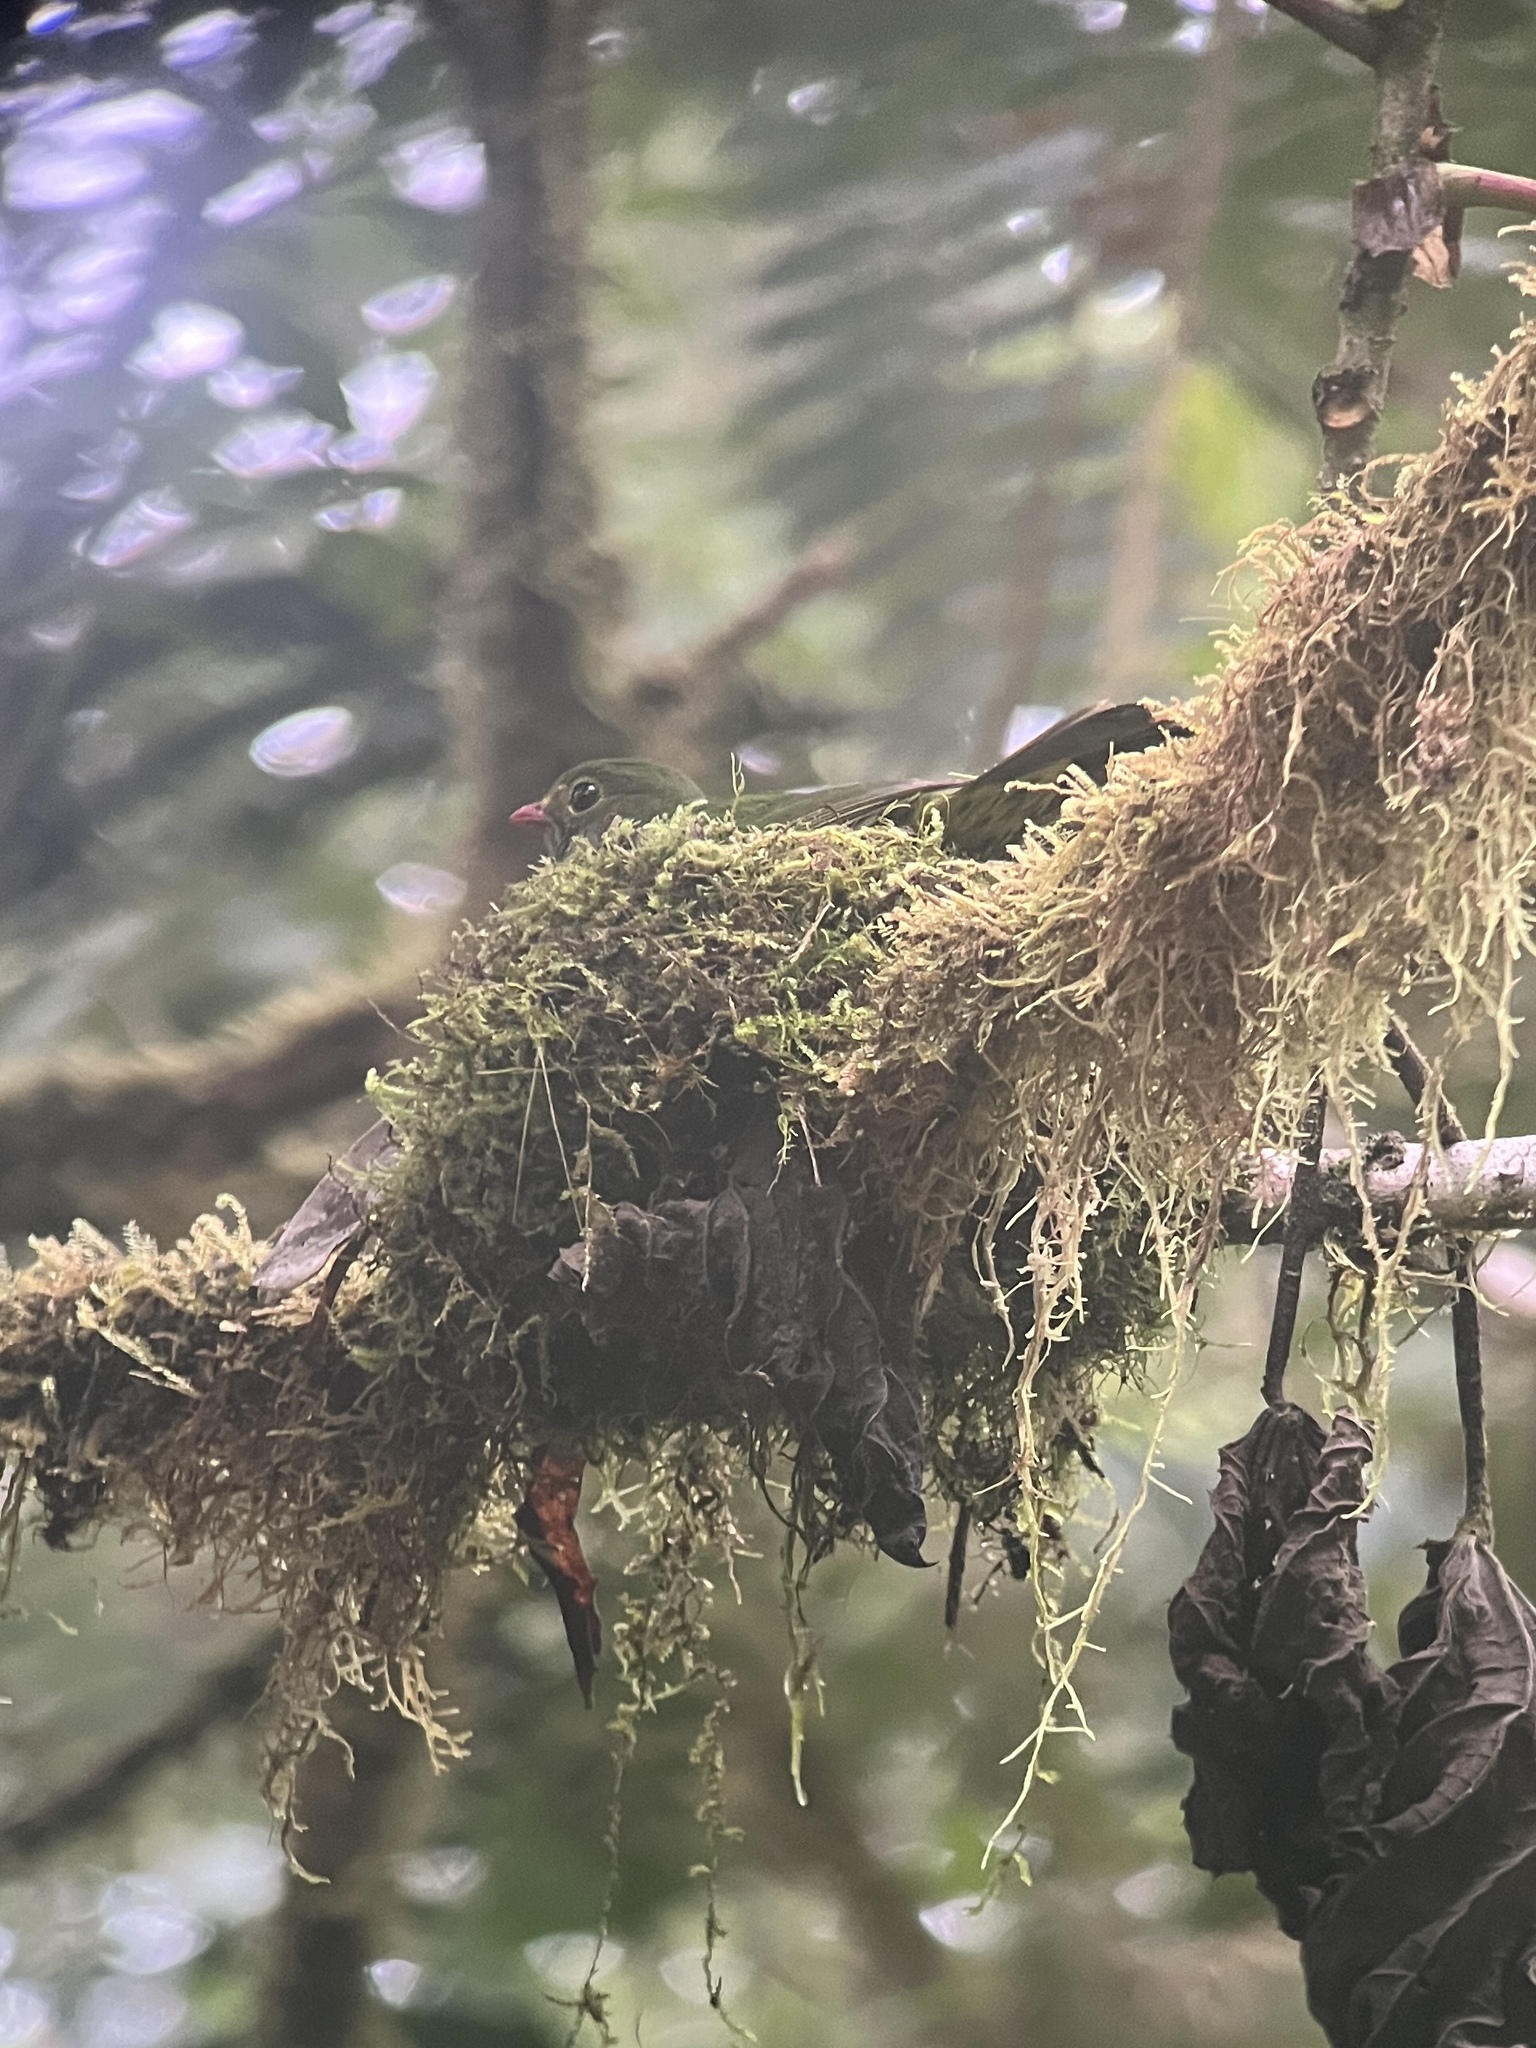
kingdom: Animalia
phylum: Chordata
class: Aves
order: Passeriformes
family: Cotingidae
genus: Pipreola
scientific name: Pipreola riefferii
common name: Green-and-black fruiteater
